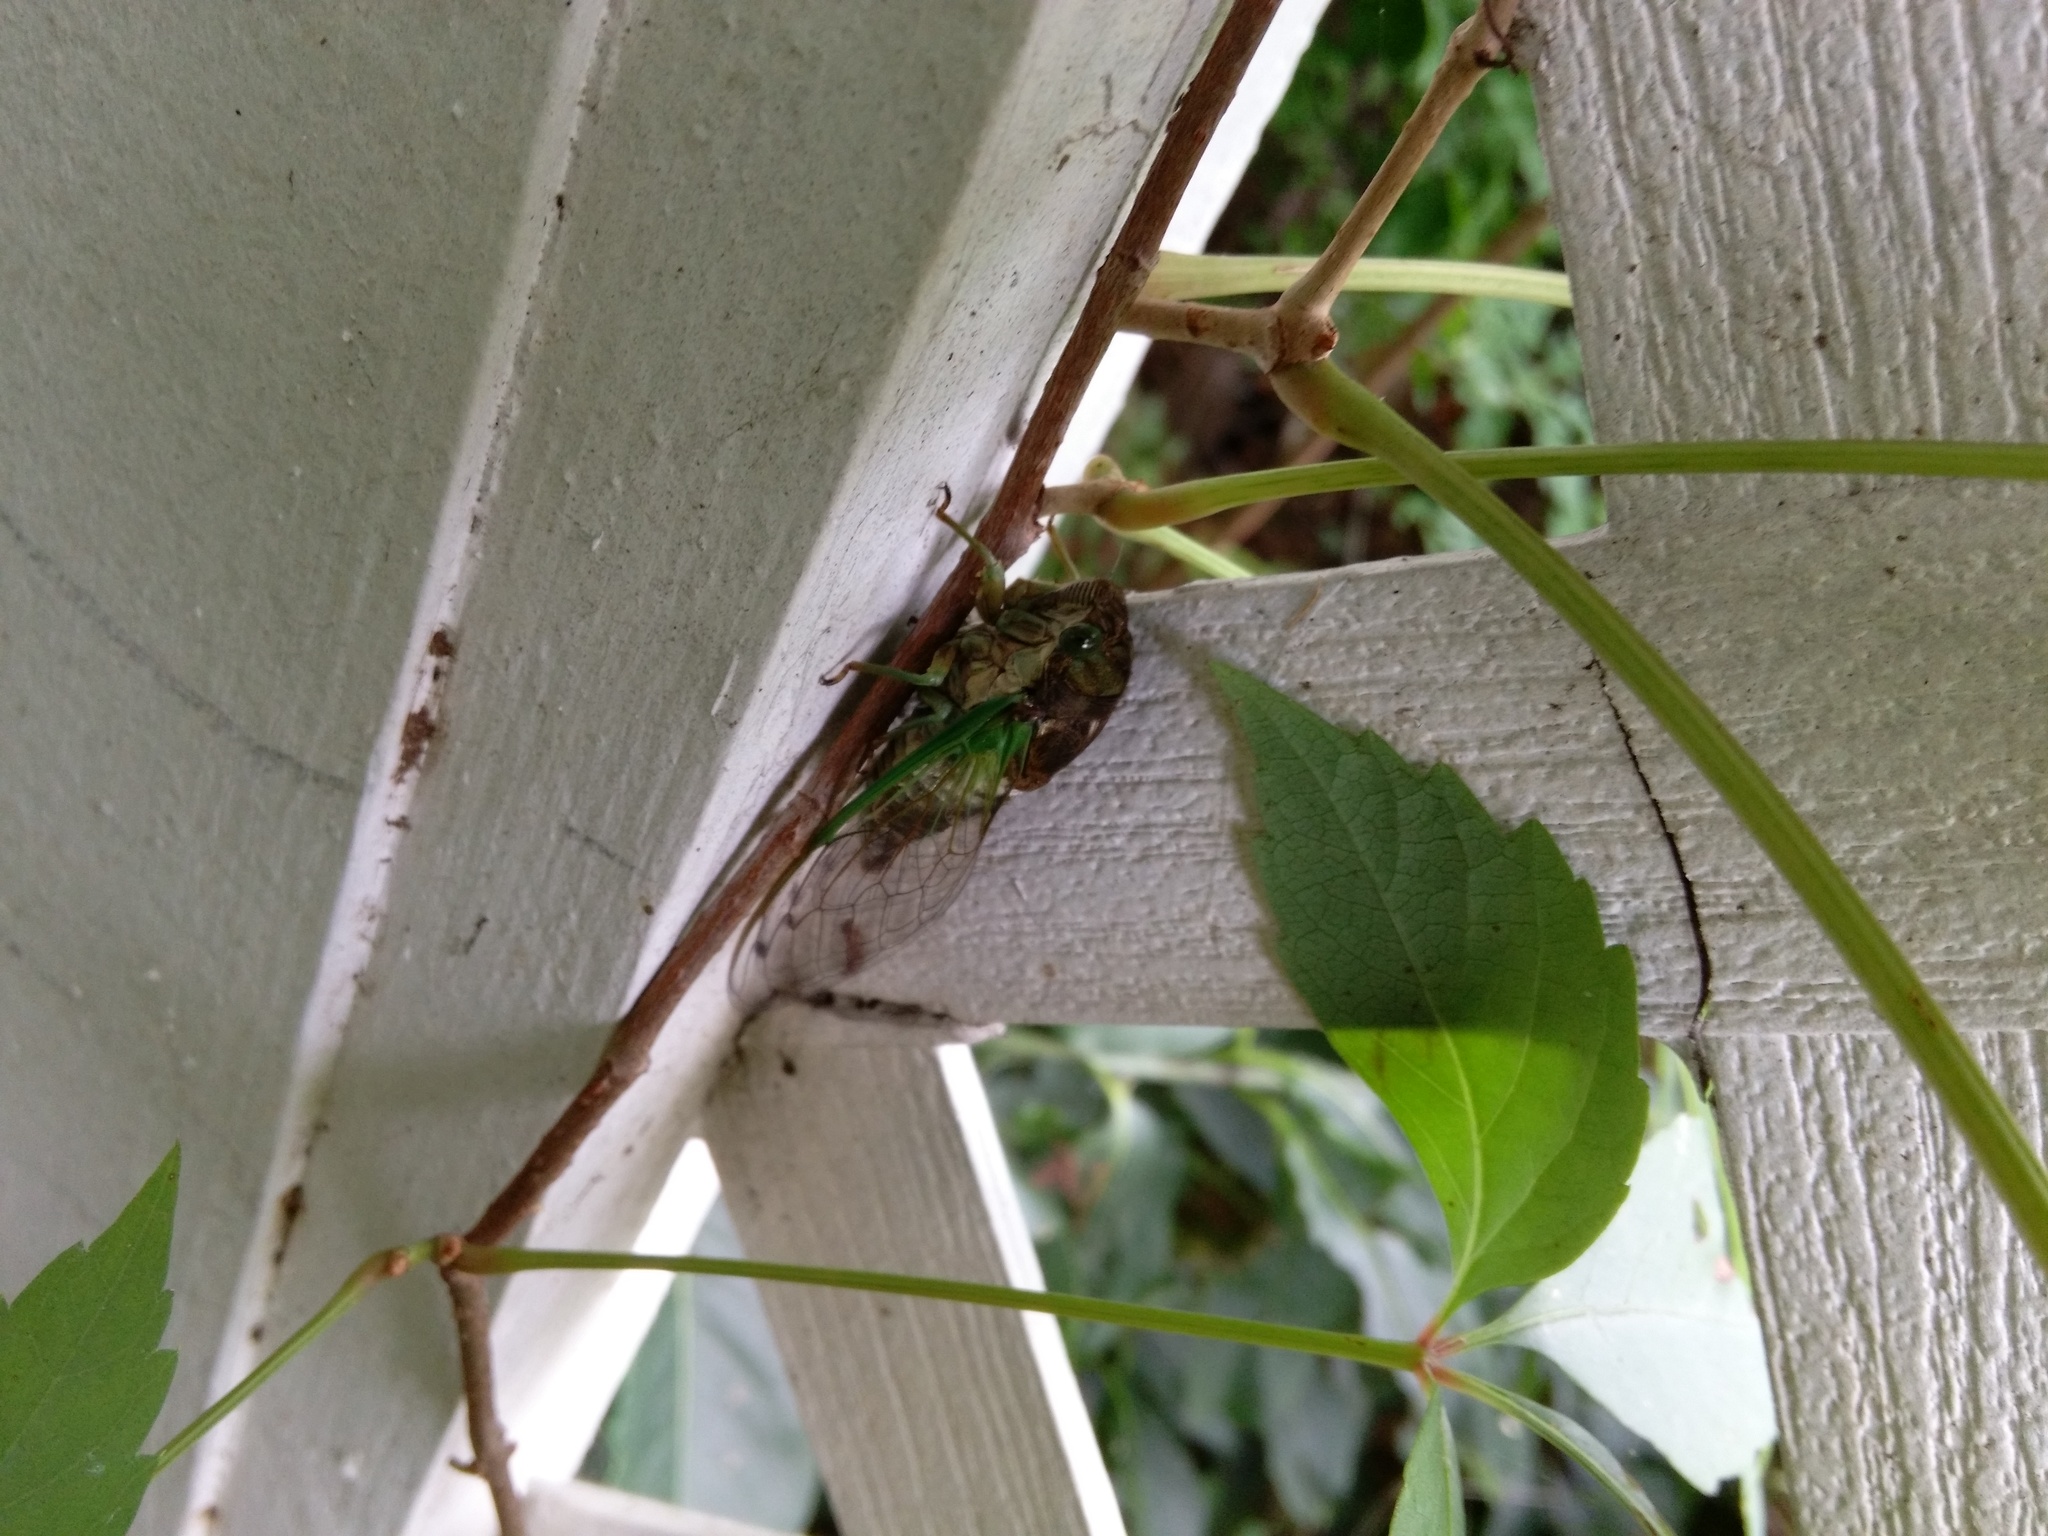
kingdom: Animalia
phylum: Arthropoda
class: Insecta
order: Hemiptera
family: Cicadidae
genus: Neotibicen
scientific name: Neotibicen tibicen
